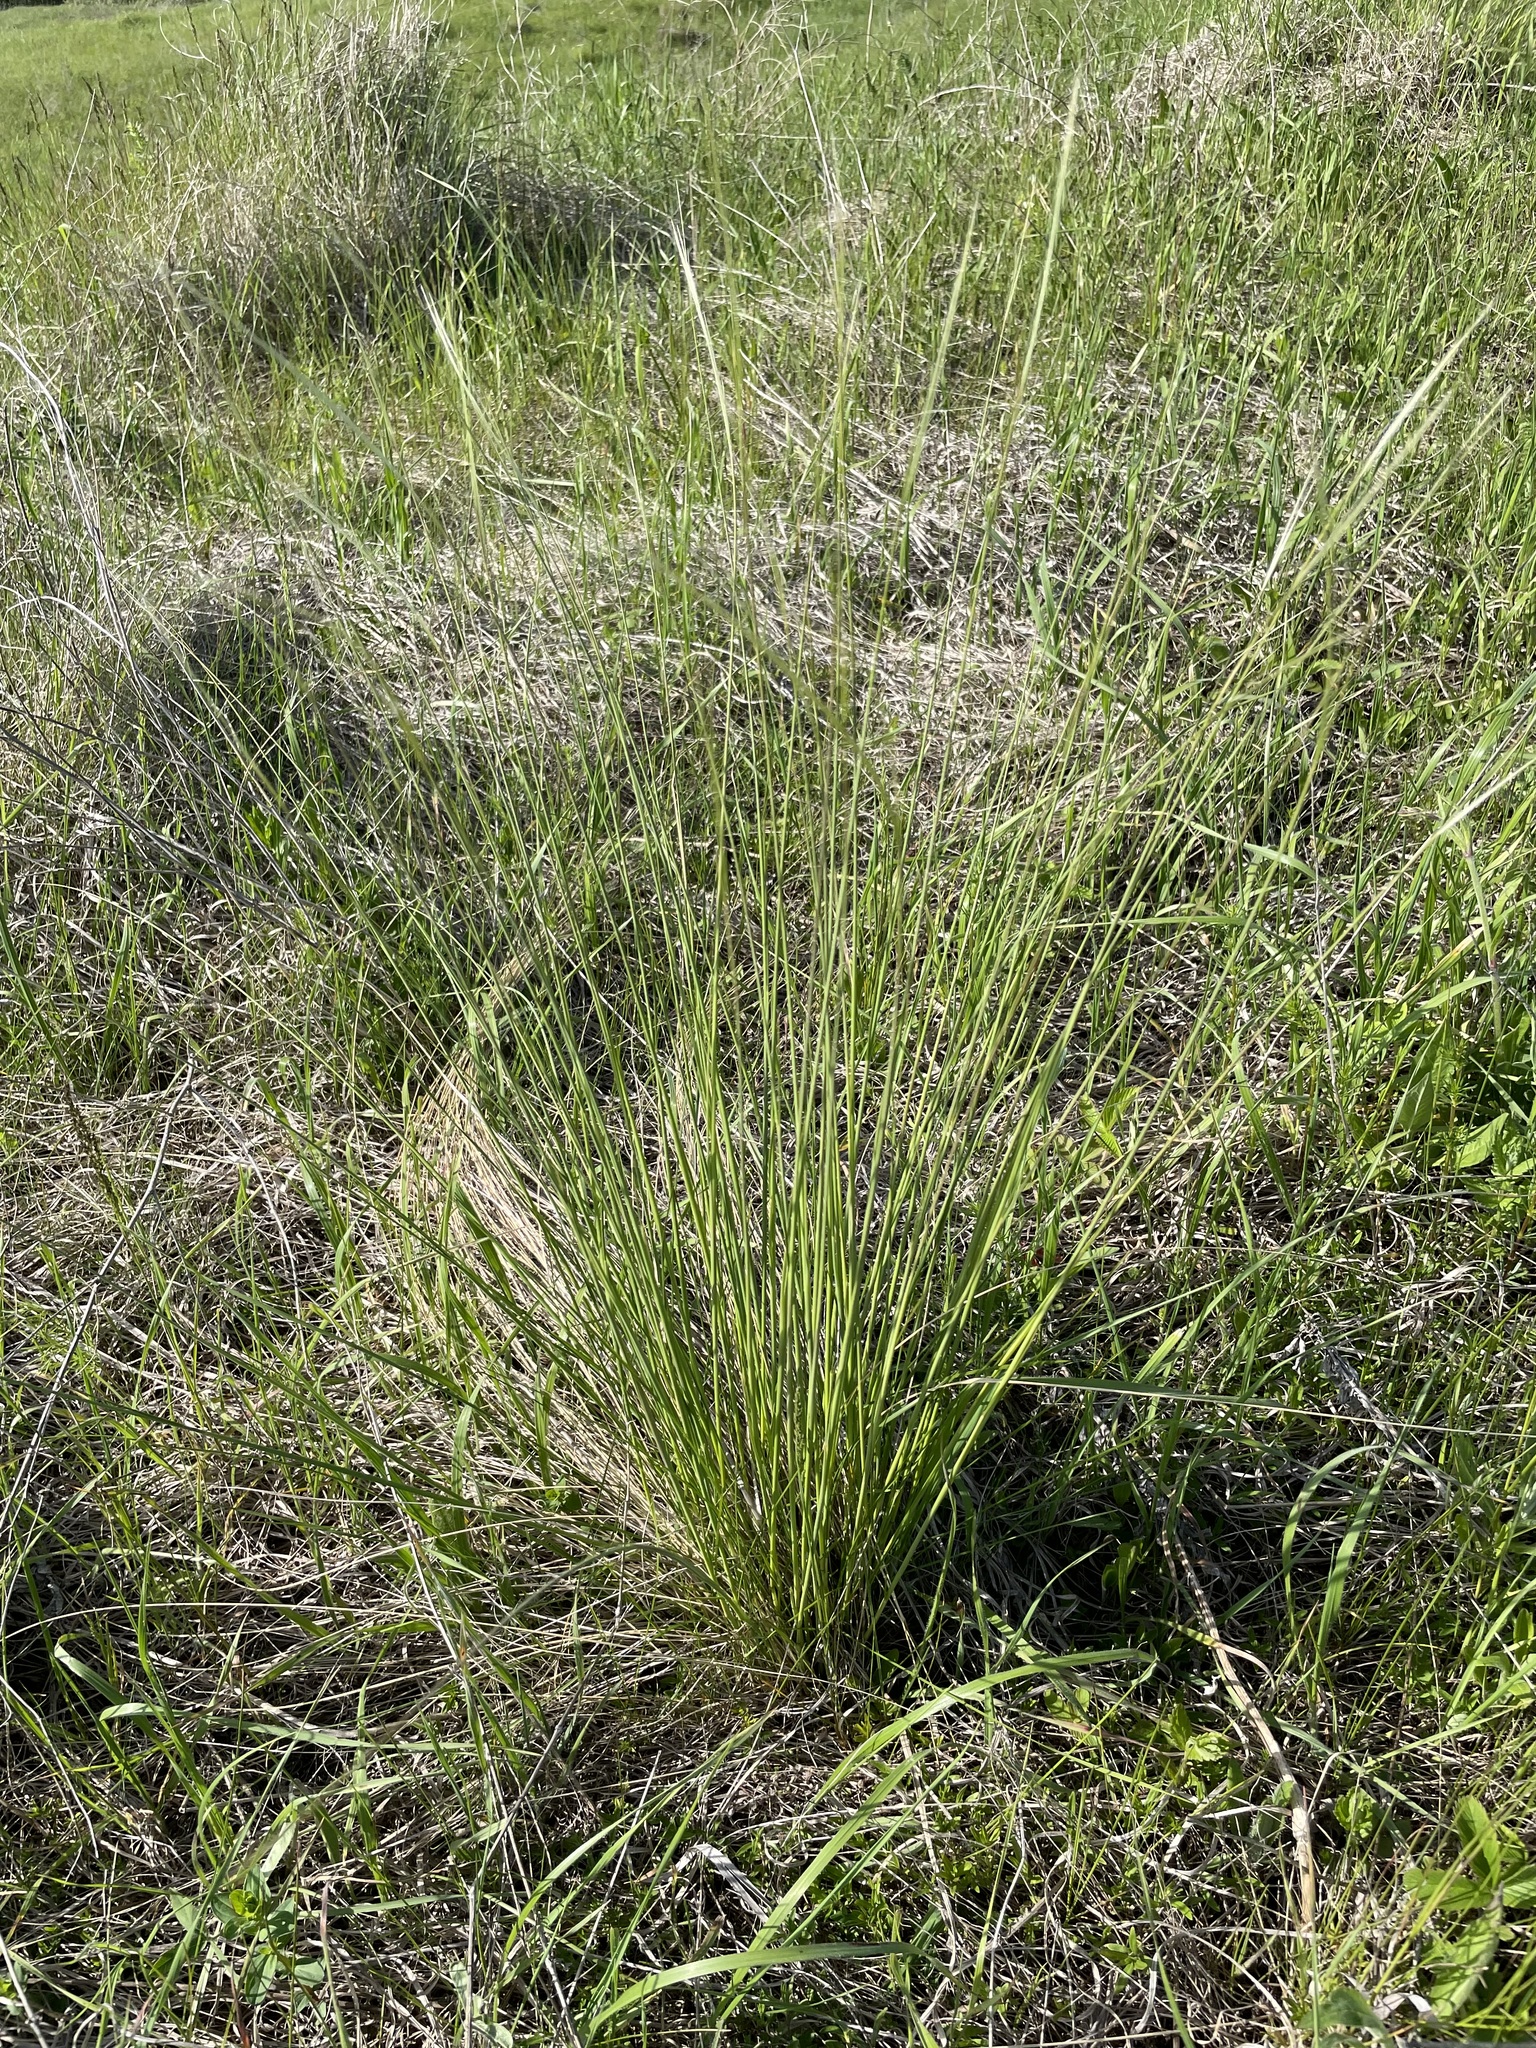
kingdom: Plantae
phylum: Tracheophyta
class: Liliopsida
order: Poales
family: Poaceae
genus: Stipa
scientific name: Stipa pennata
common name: European feather grass
